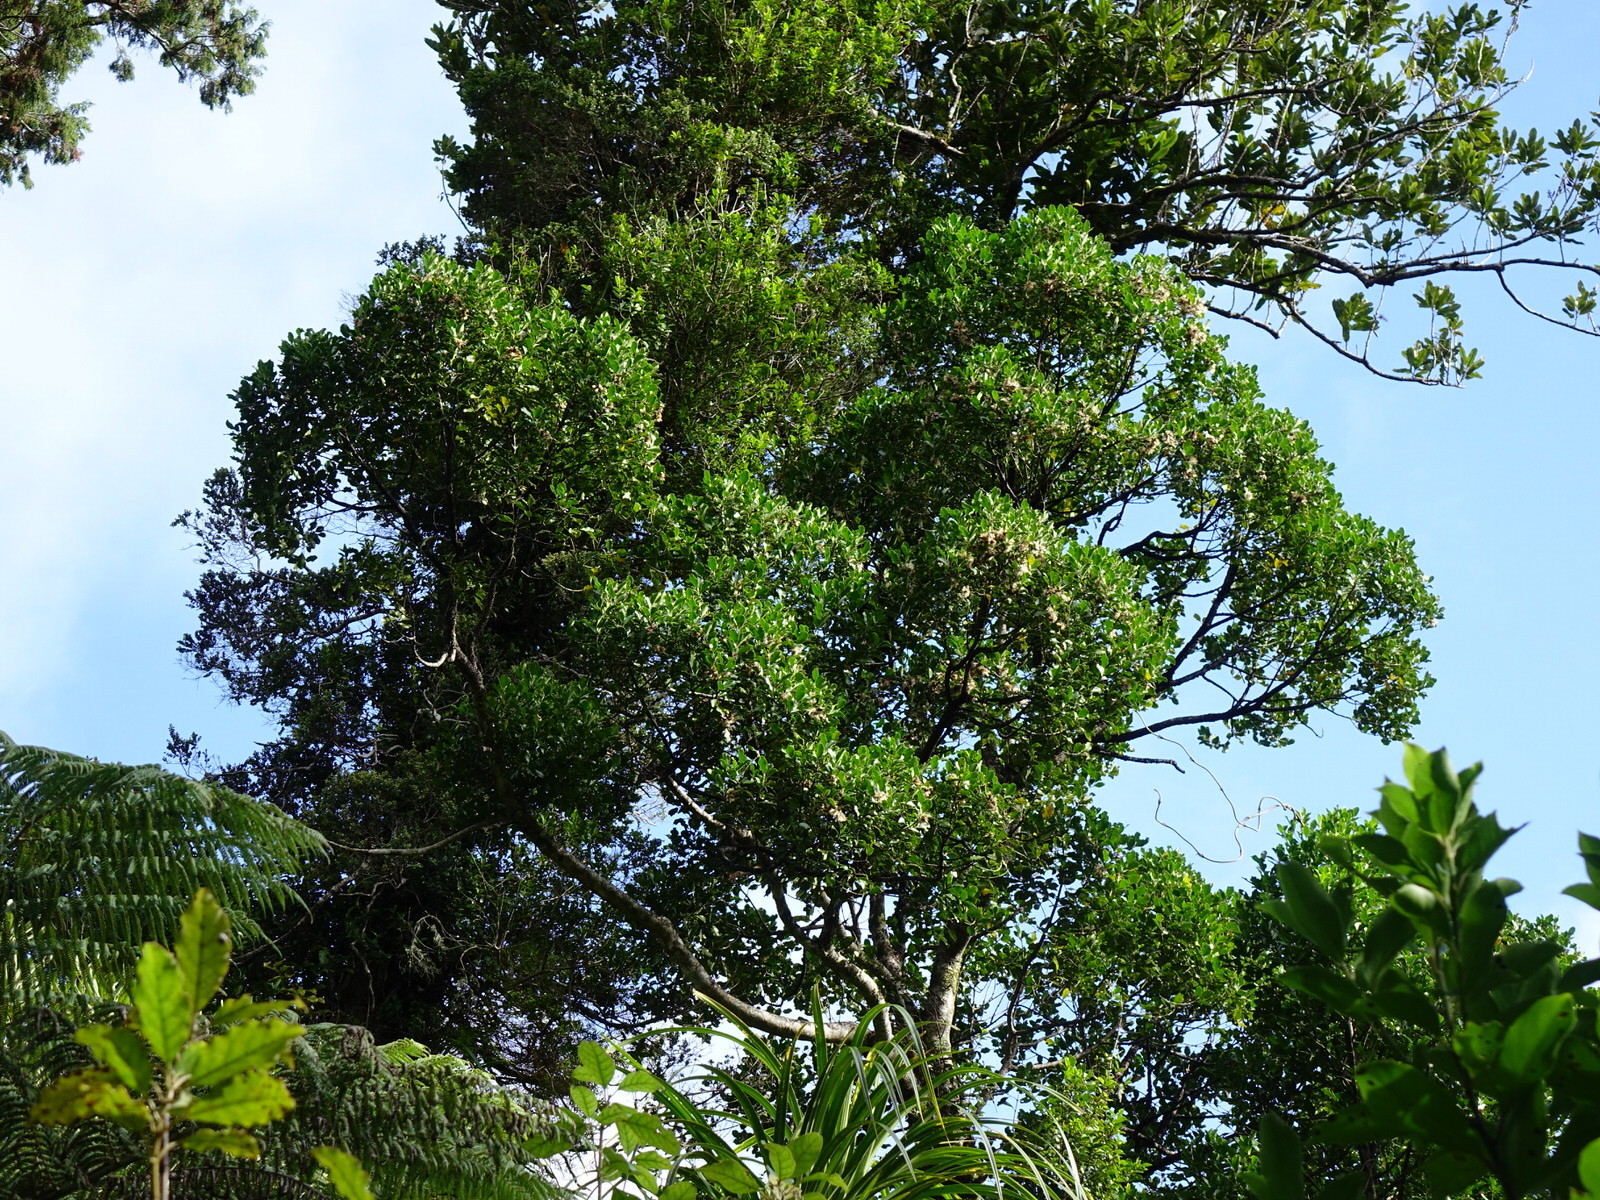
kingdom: Plantae
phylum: Tracheophyta
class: Magnoliopsida
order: Laurales
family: Atherospermataceae
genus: Laurelia
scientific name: Laurelia novae-zelandiae
